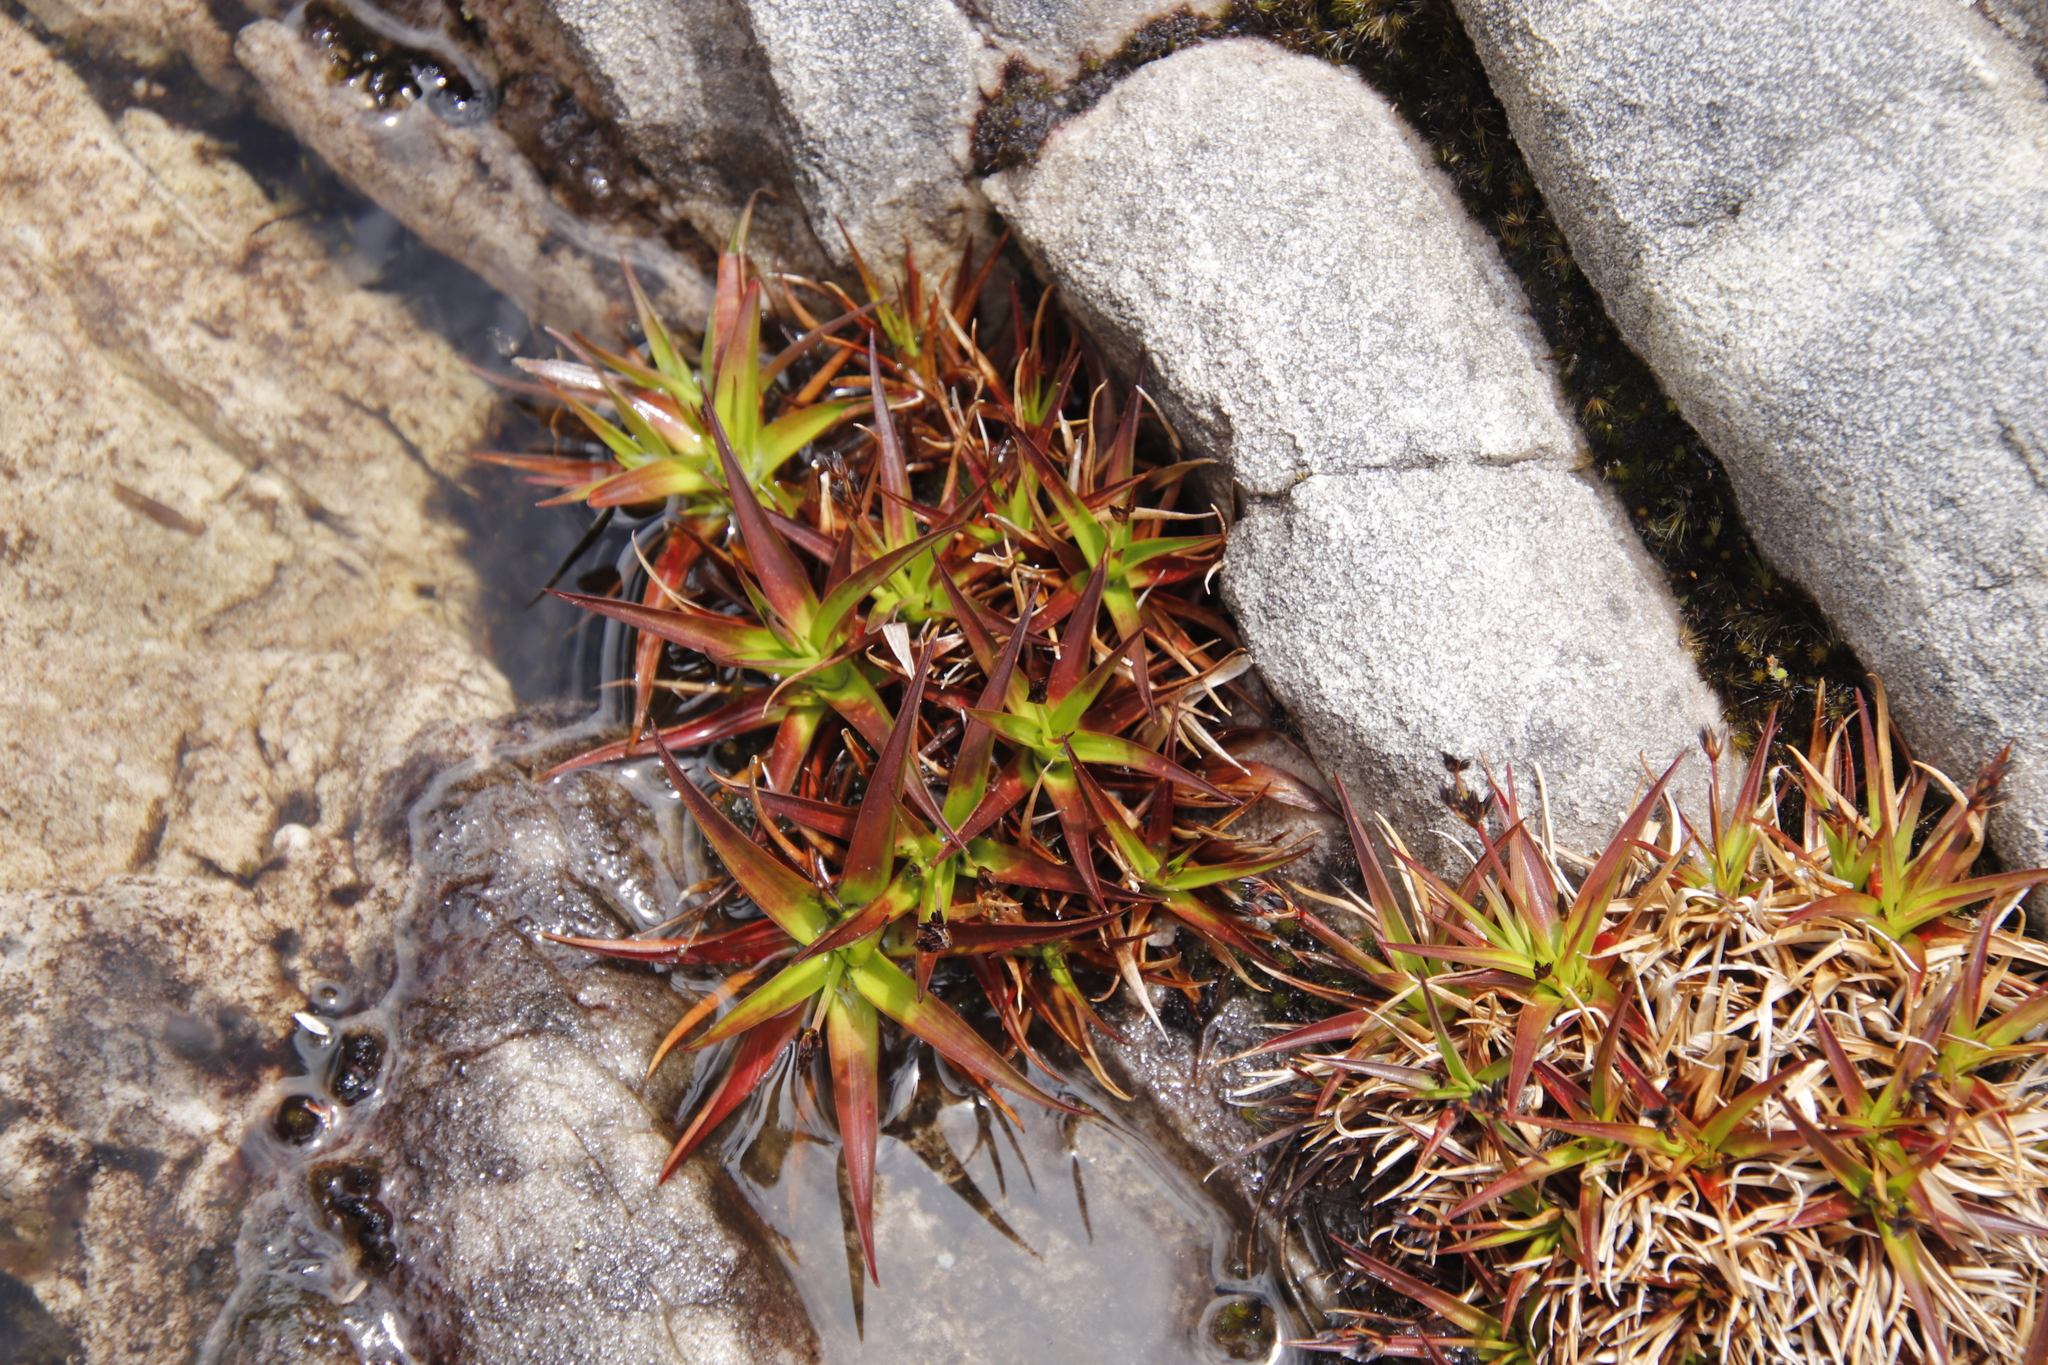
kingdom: Plantae
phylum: Tracheophyta
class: Liliopsida
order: Poales
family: Juncaceae
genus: Juncus
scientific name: Juncus lomatophyllus
